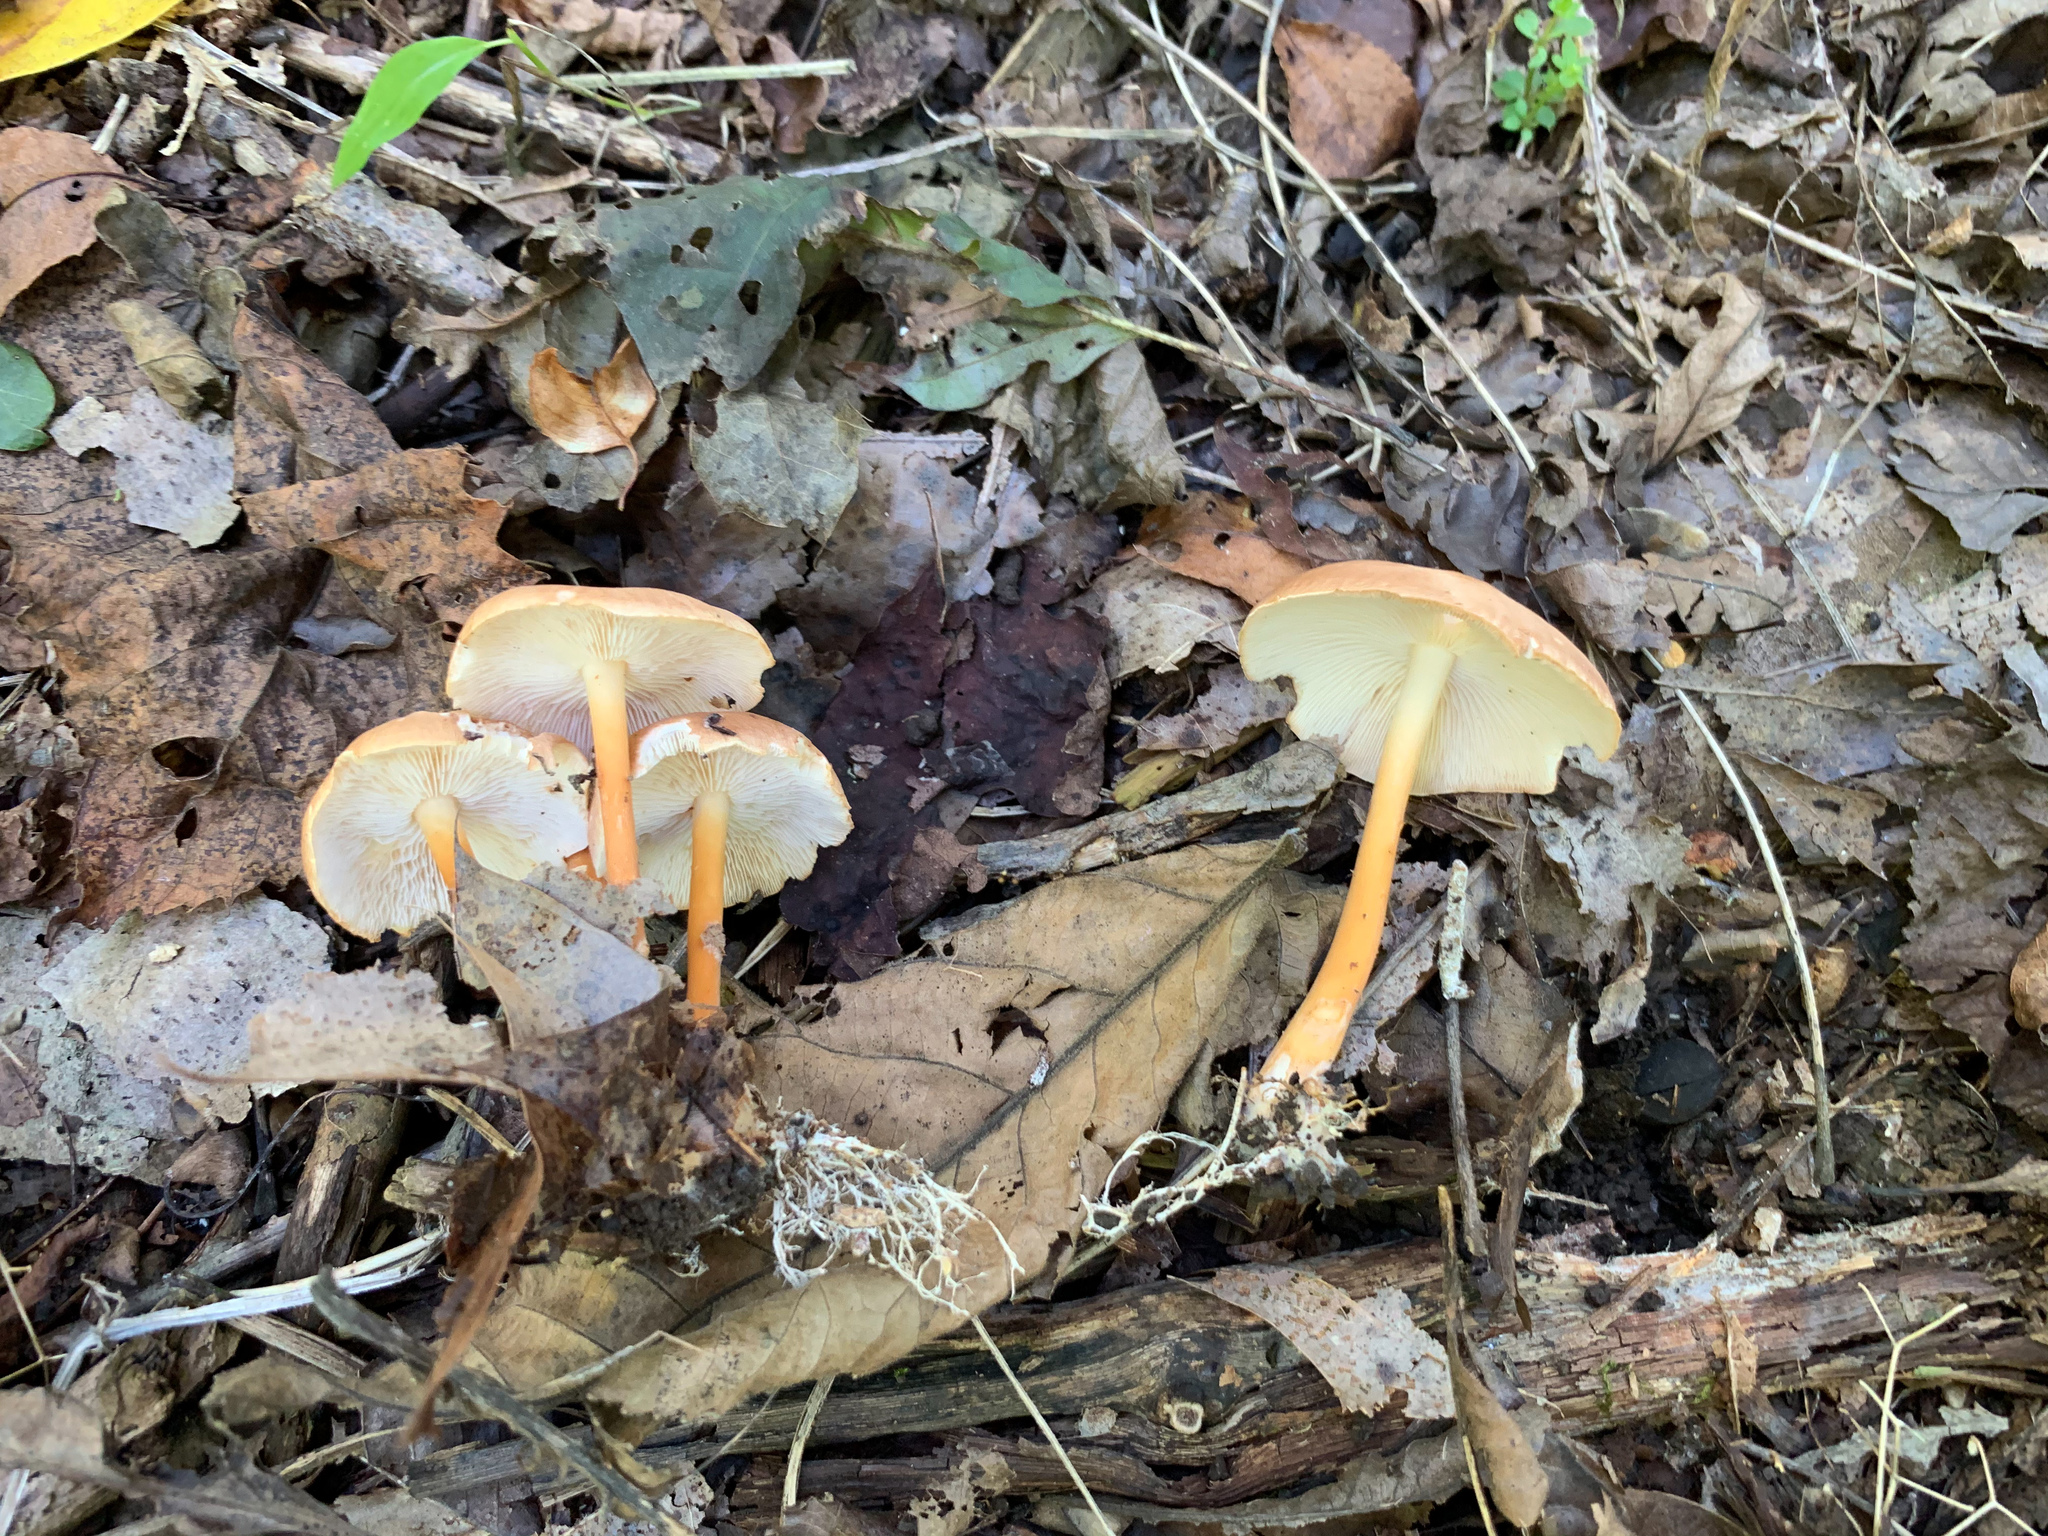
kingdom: Fungi
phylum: Basidiomycota
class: Agaricomycetes
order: Agaricales
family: Omphalotaceae
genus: Gymnopus
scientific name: Gymnopus dryophilus
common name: Penny top
